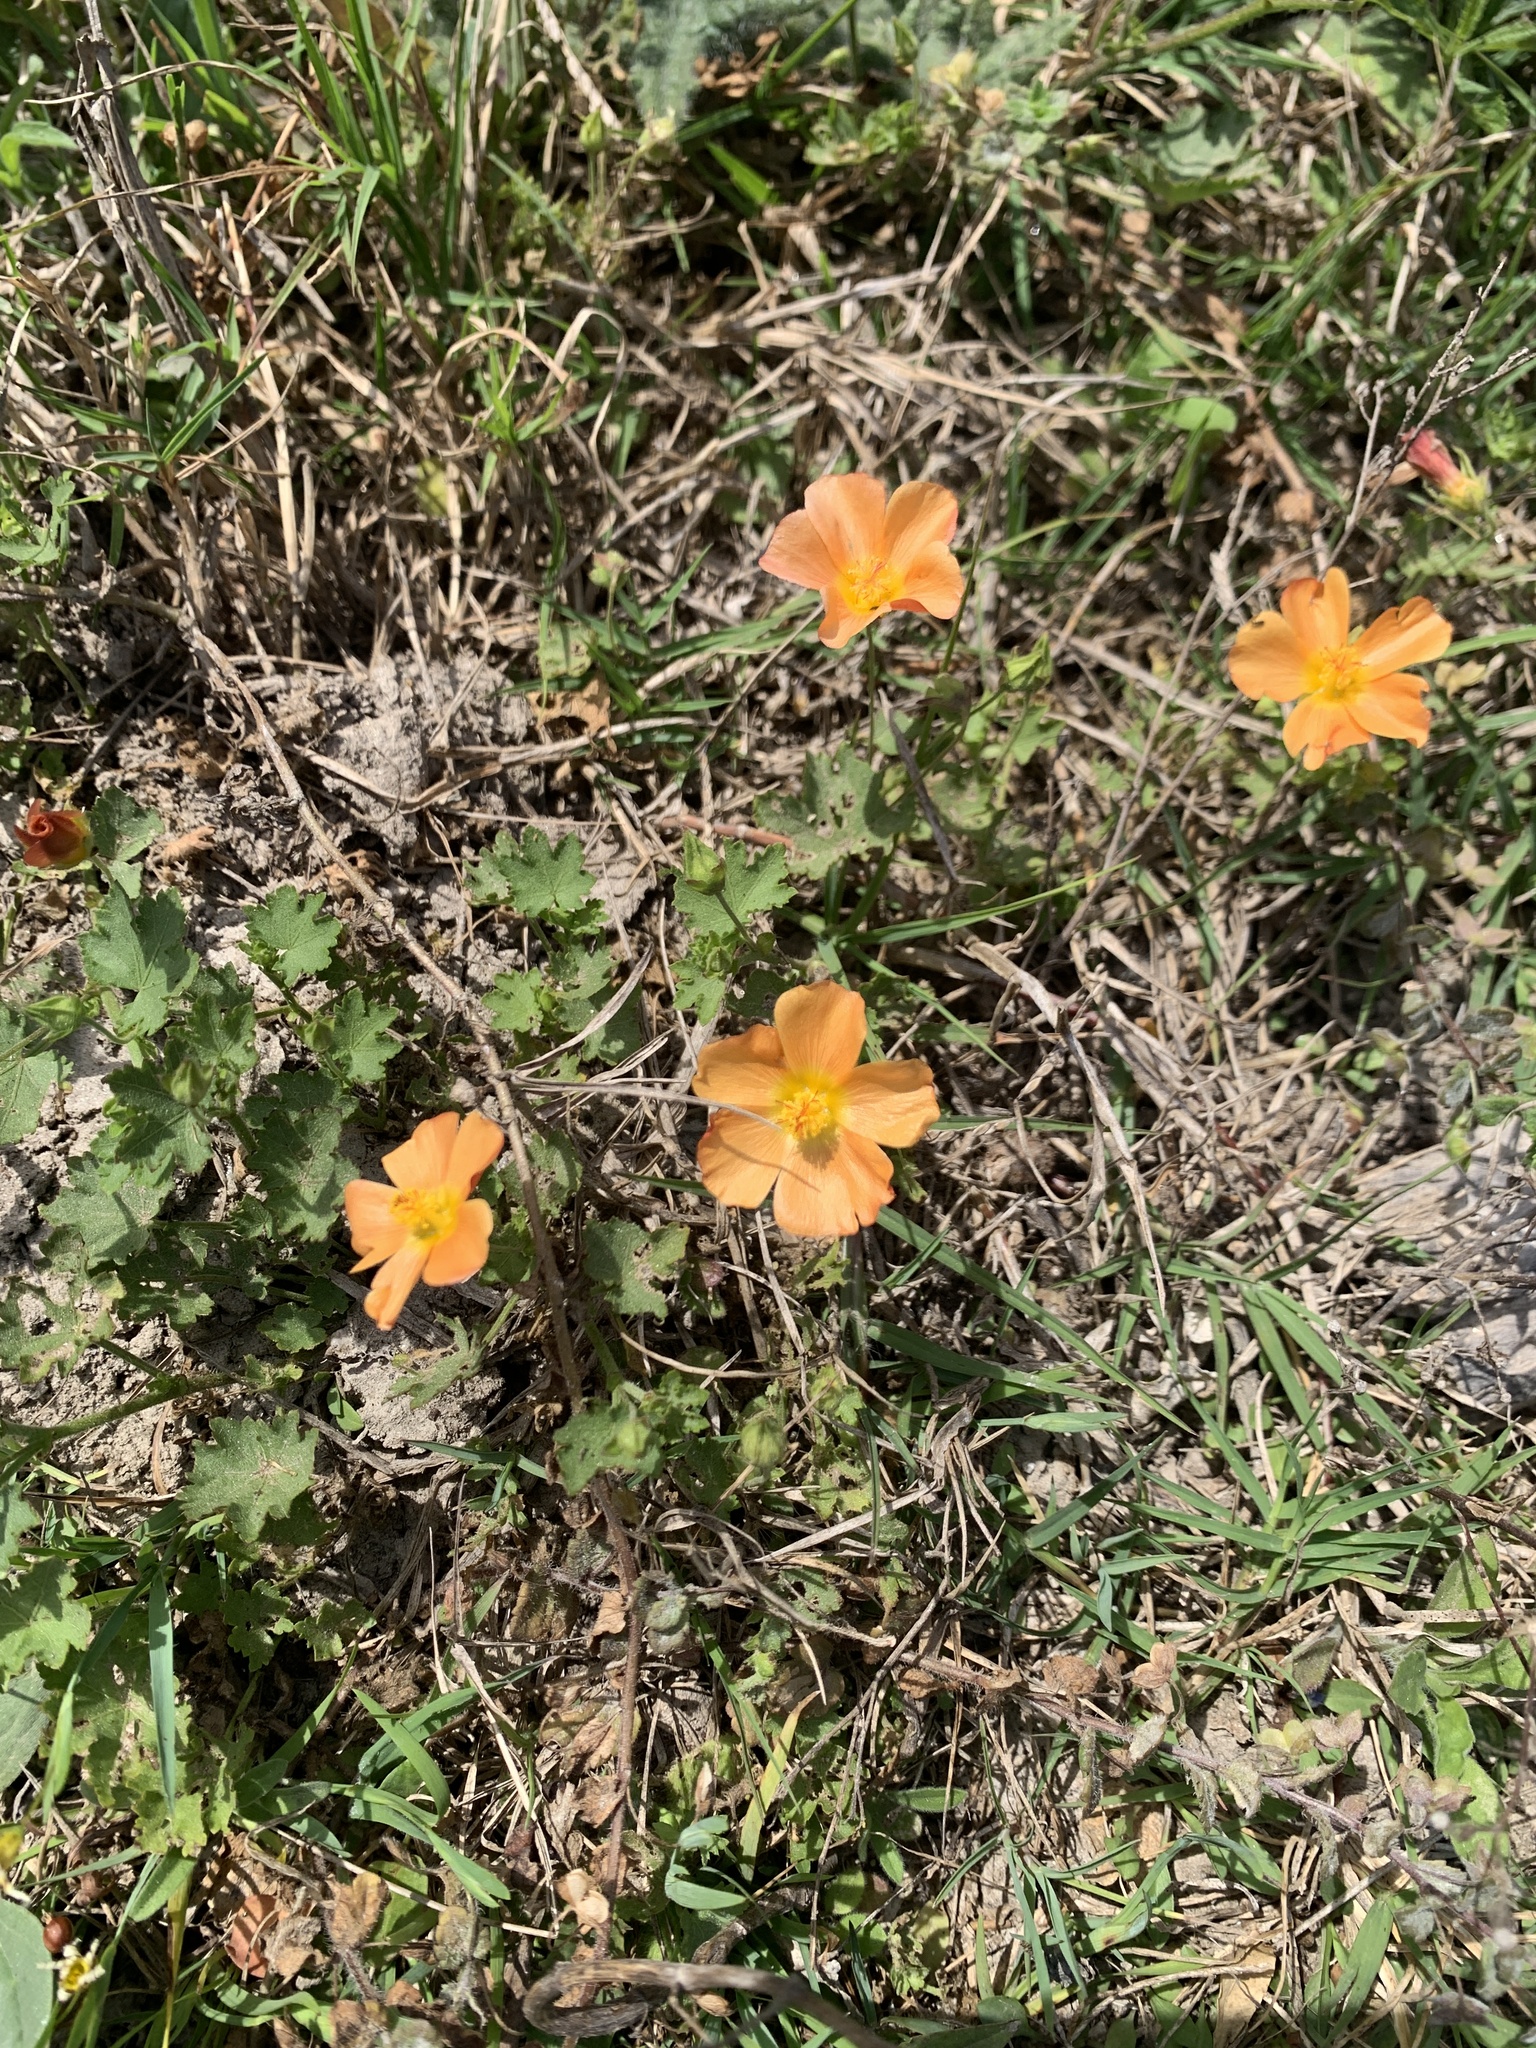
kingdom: Plantae
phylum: Tracheophyta
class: Magnoliopsida
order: Malvales
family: Malvaceae
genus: Modiolastrum
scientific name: Modiolastrum malvifolium
